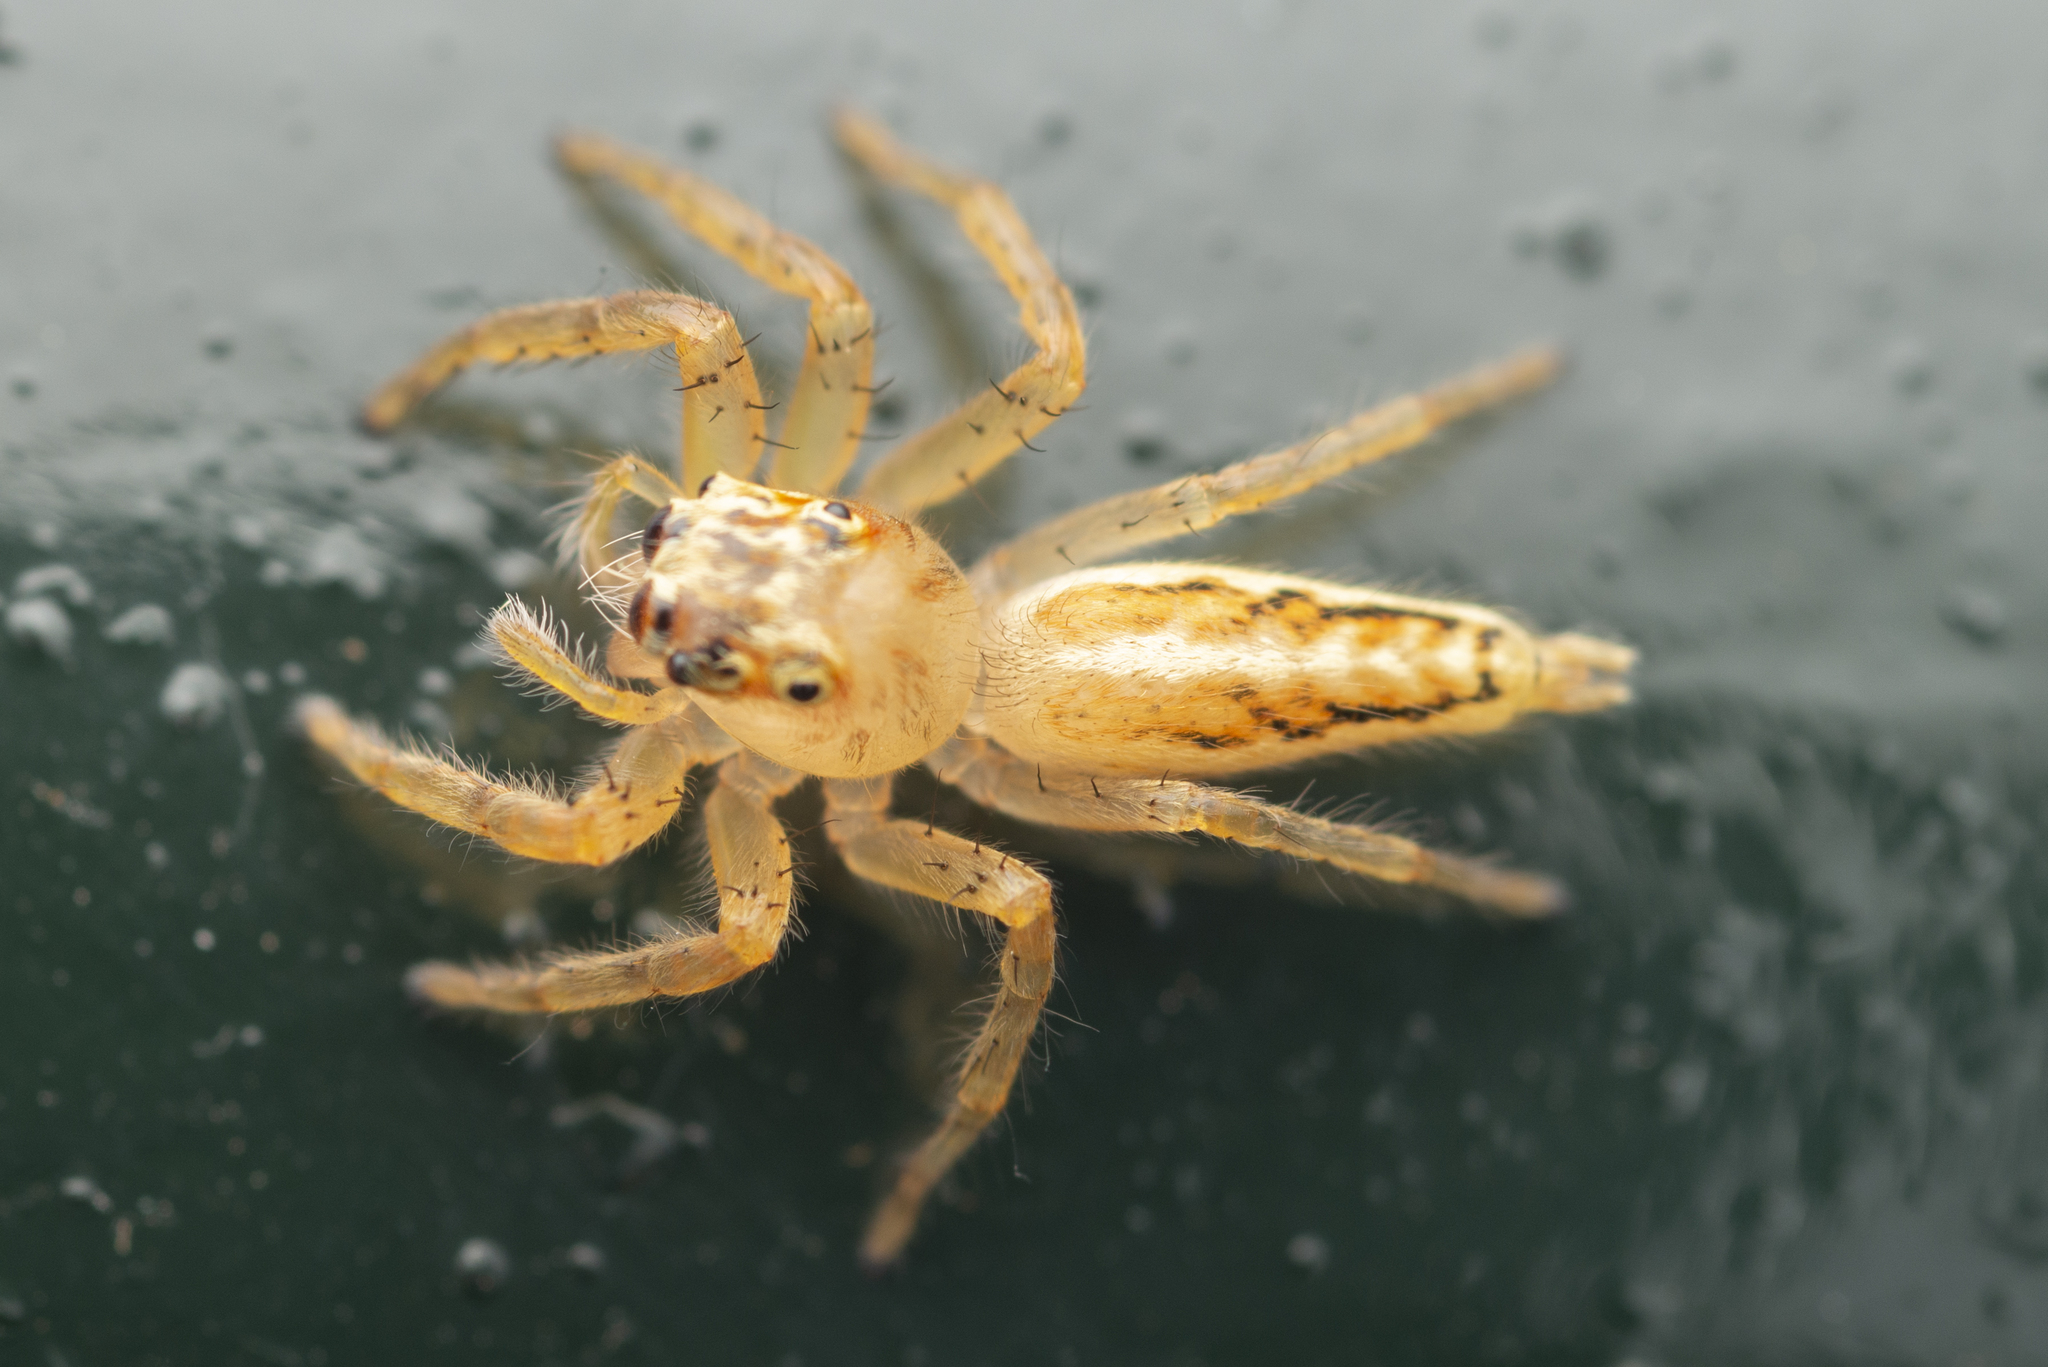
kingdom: Animalia
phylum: Arthropoda
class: Arachnida
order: Araneae
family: Salticidae
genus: Telamonia
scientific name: Telamonia caprina
